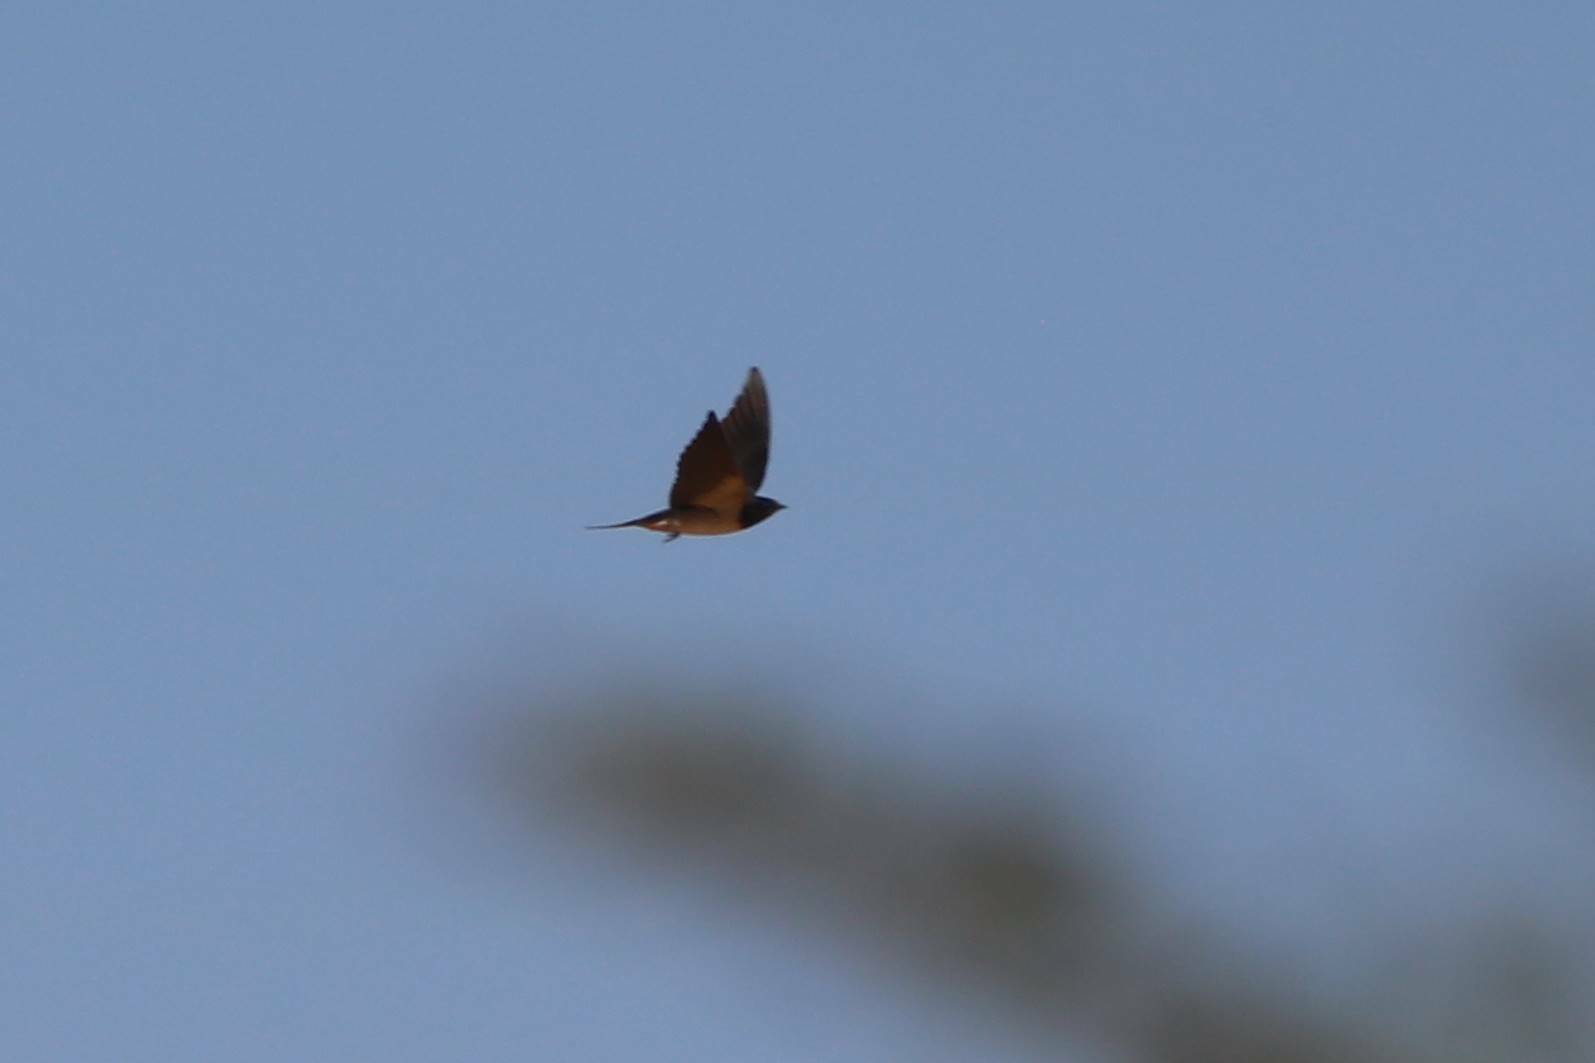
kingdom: Animalia
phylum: Chordata
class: Aves
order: Passeriformes
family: Hirundinidae
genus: Hirundo
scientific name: Hirundo rustica
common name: Barn swallow
